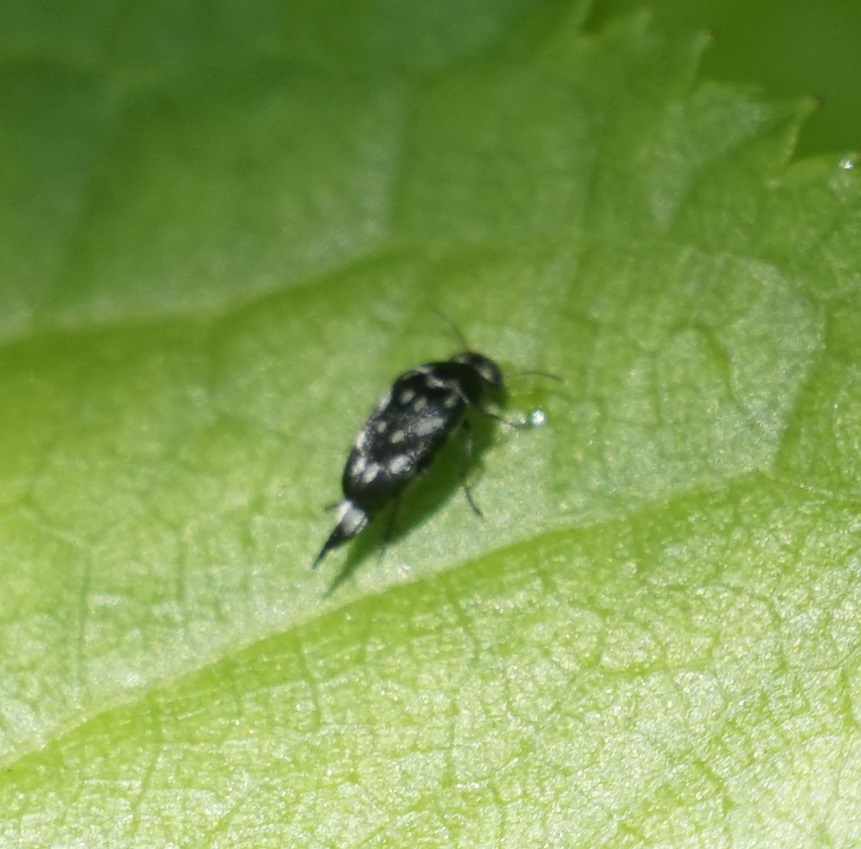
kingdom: Animalia
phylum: Arthropoda
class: Insecta
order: Coleoptera
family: Mordellidae
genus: Mordella
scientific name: Mordella
